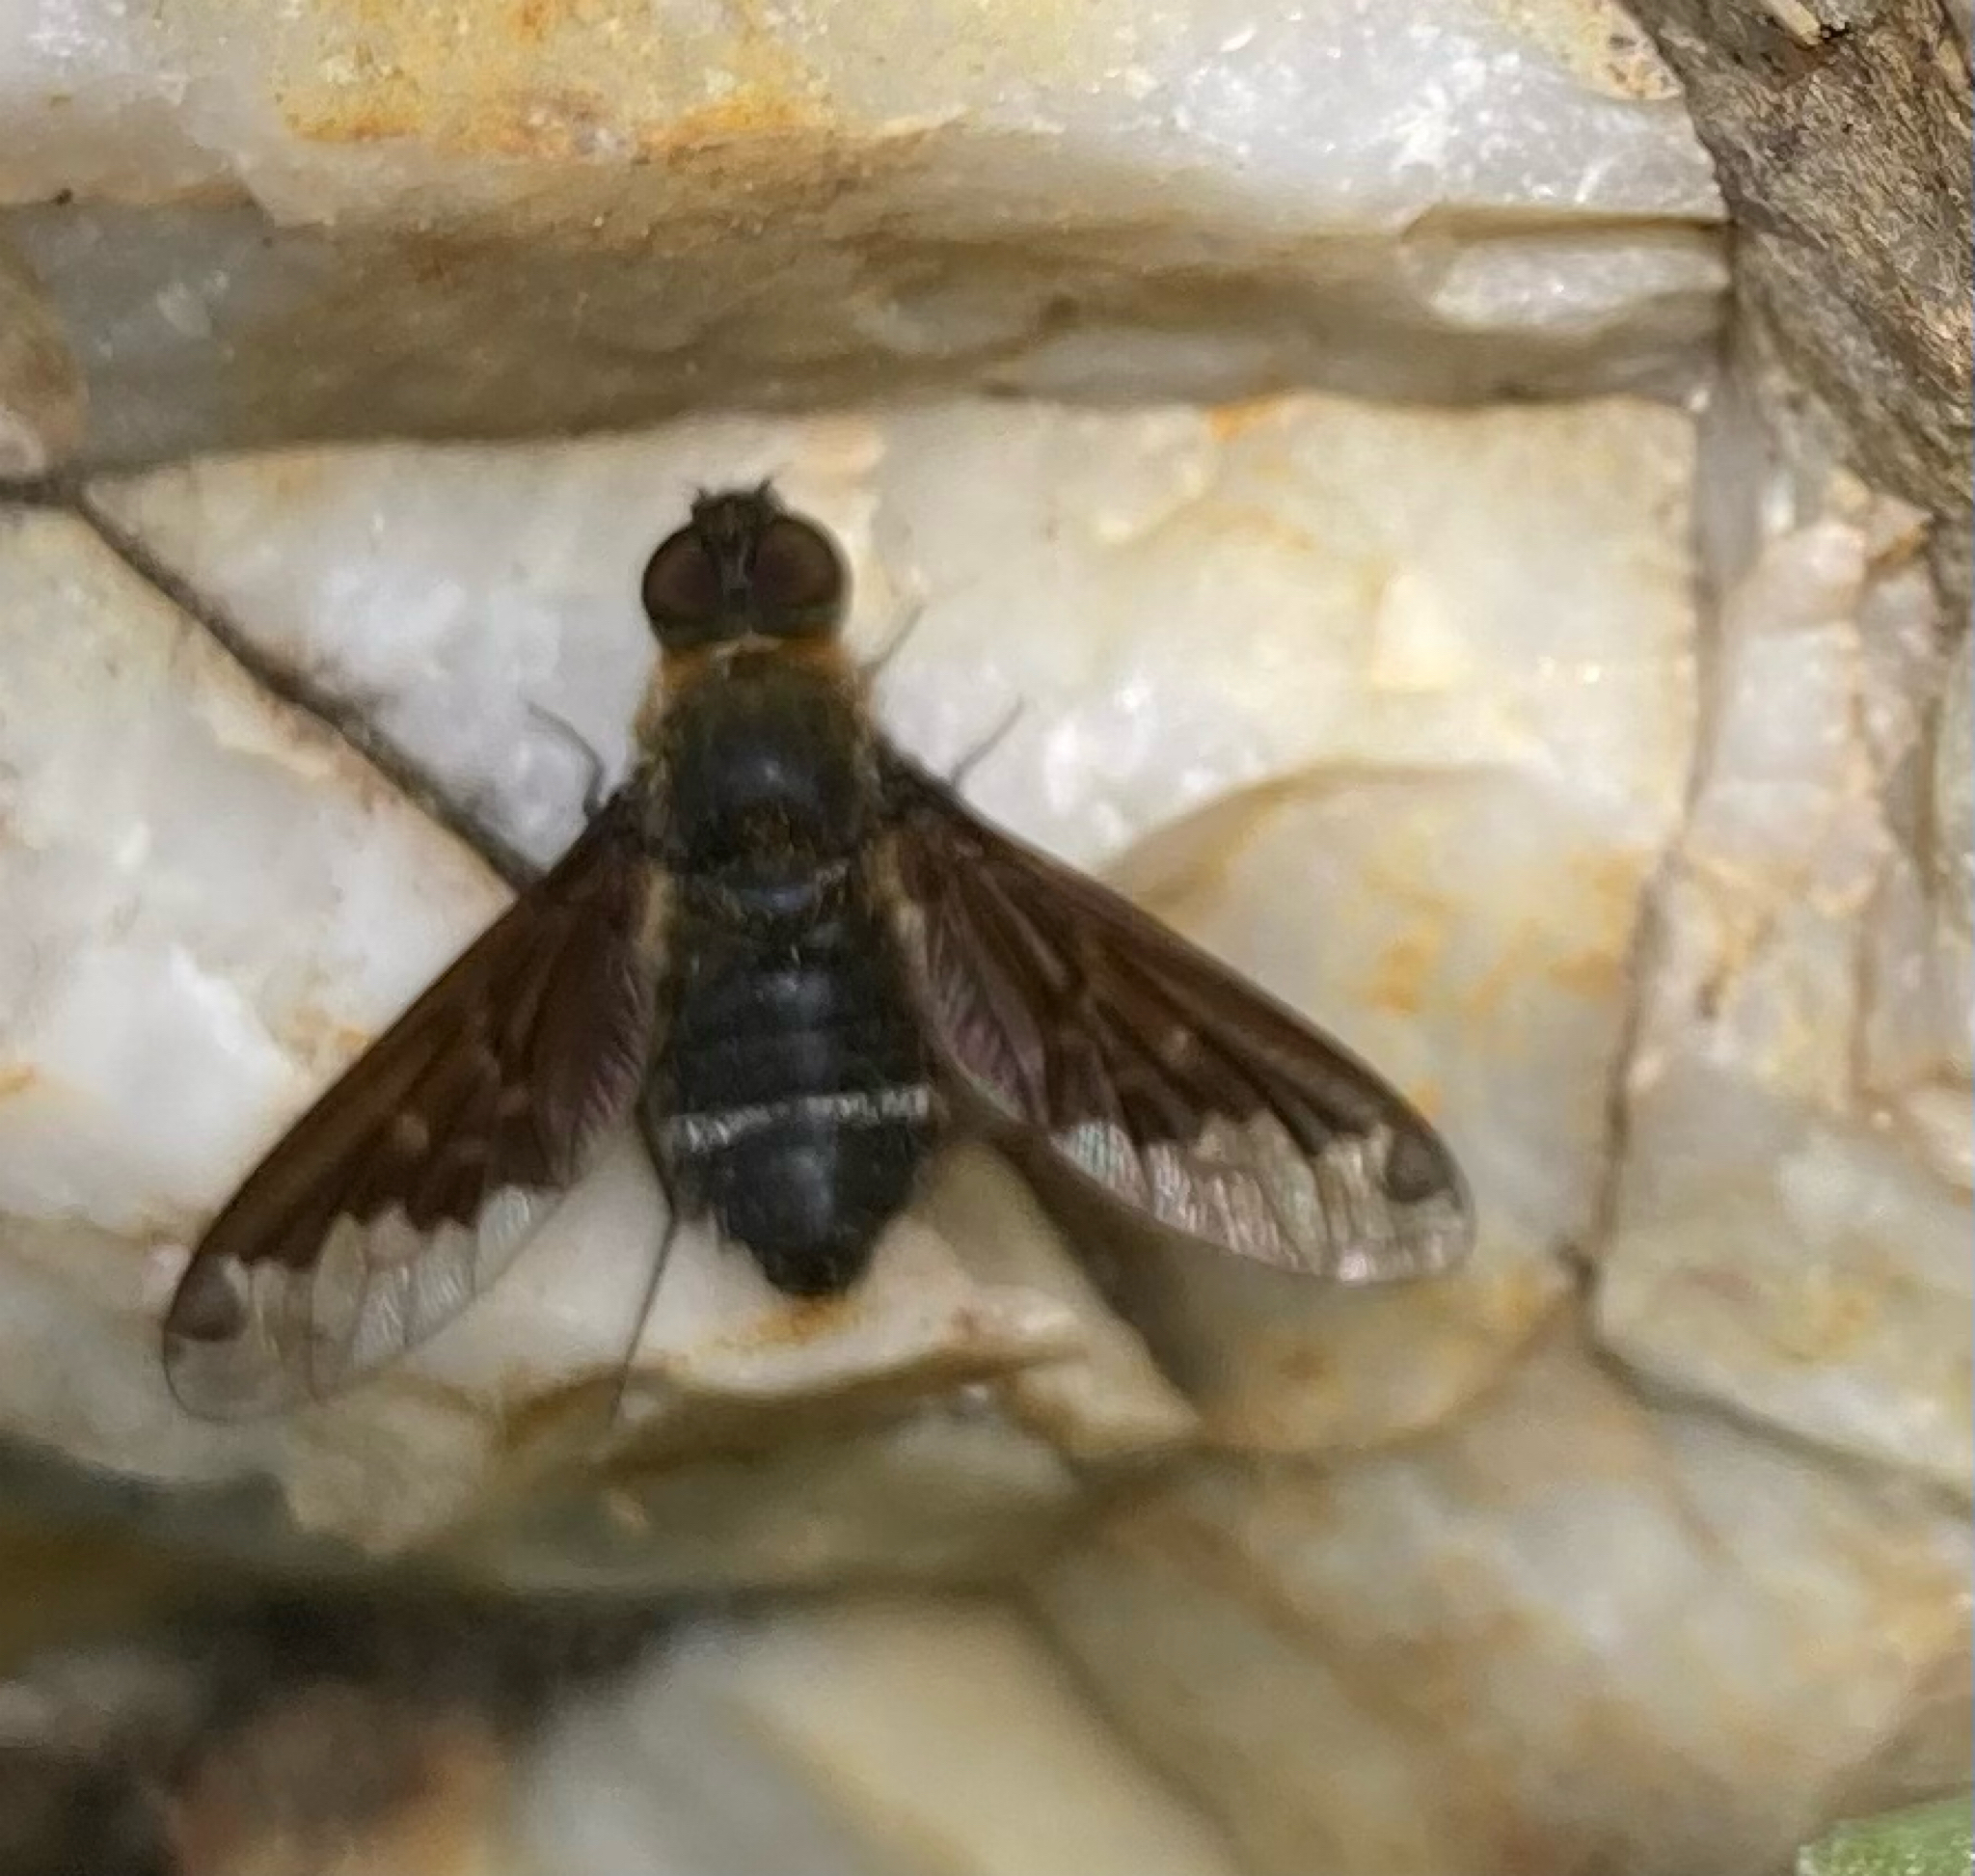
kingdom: Animalia
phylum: Arthropoda
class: Insecta
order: Diptera
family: Bombyliidae
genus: Hemipenthes
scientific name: Hemipenthes velutina
